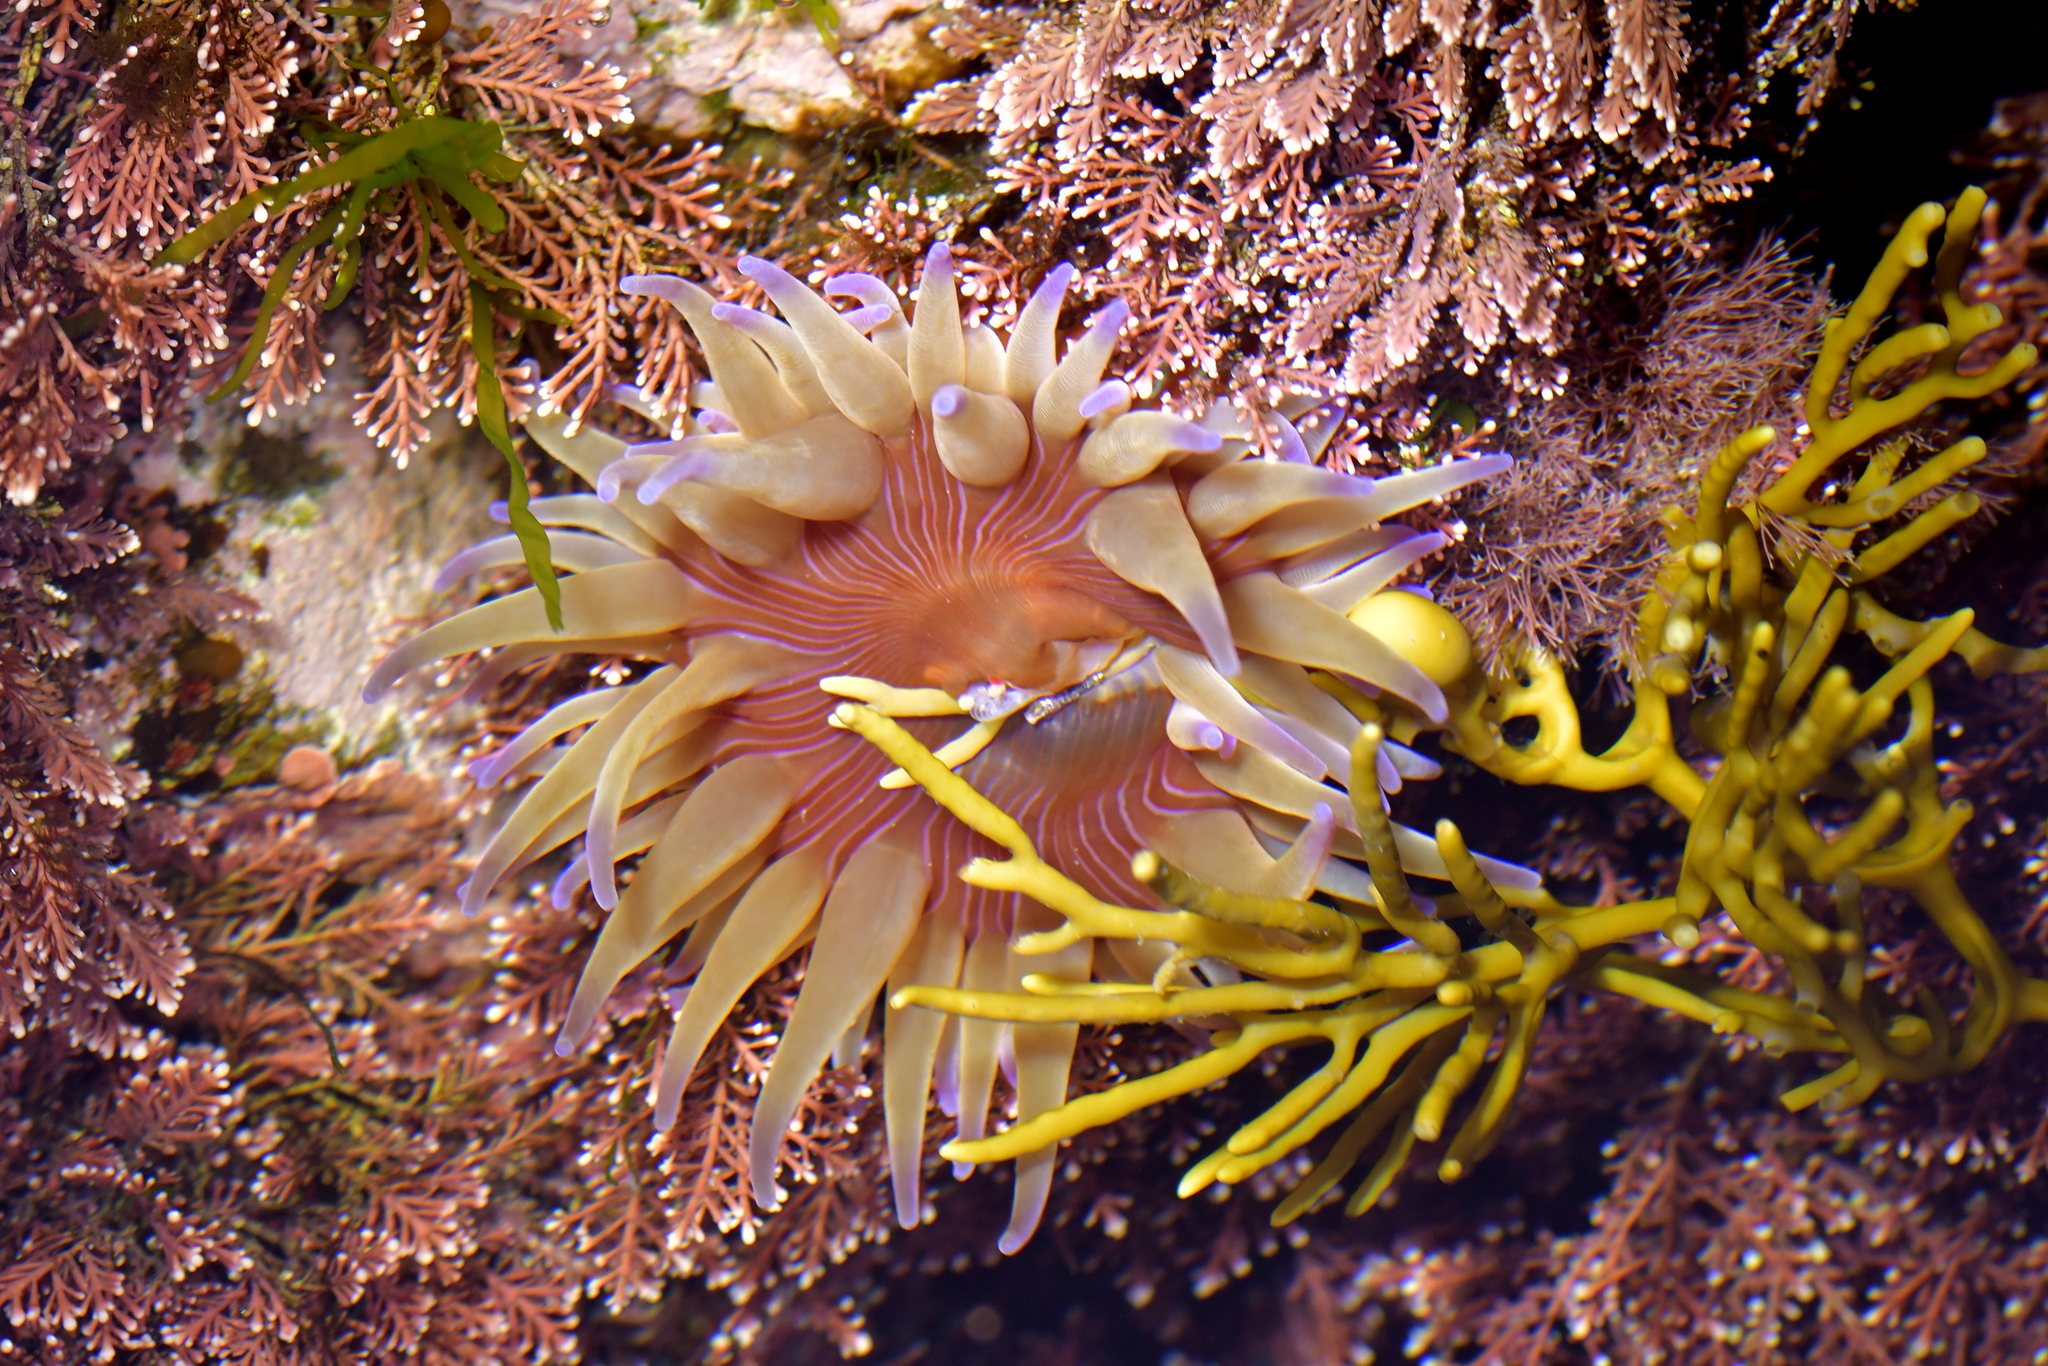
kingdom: Animalia
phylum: Cnidaria
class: Anthozoa
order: Actiniaria
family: Actiniidae
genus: Epiactis
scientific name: Epiactis thompsoni
